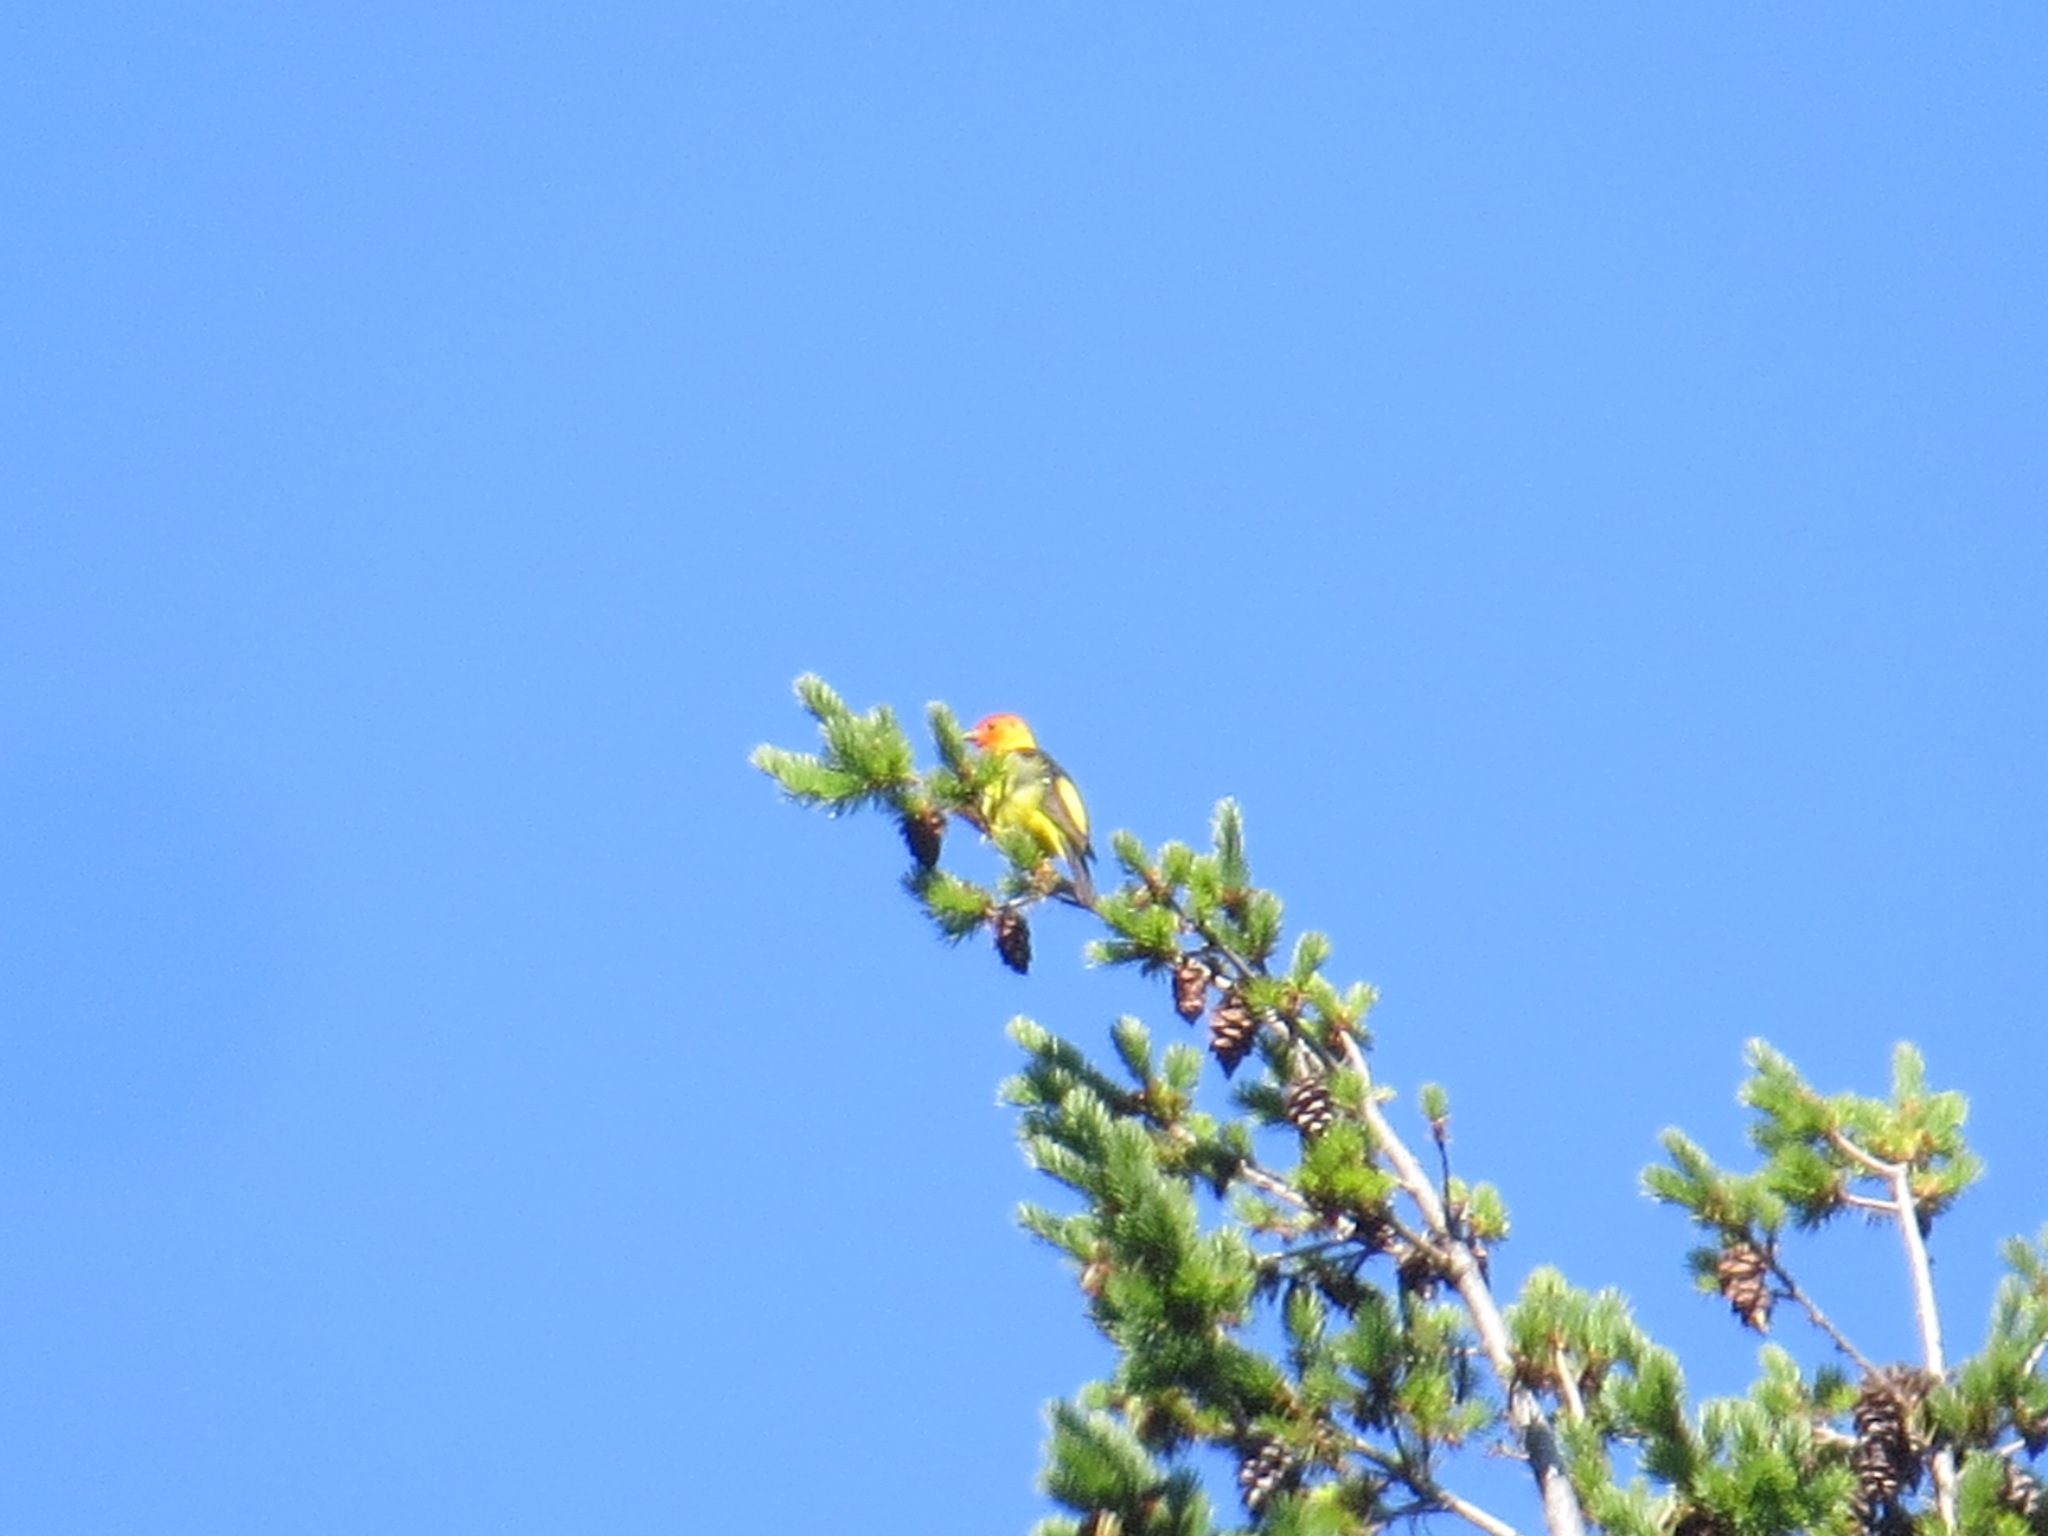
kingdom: Animalia
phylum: Chordata
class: Aves
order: Passeriformes
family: Cardinalidae
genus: Piranga
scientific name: Piranga ludoviciana
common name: Western tanager
